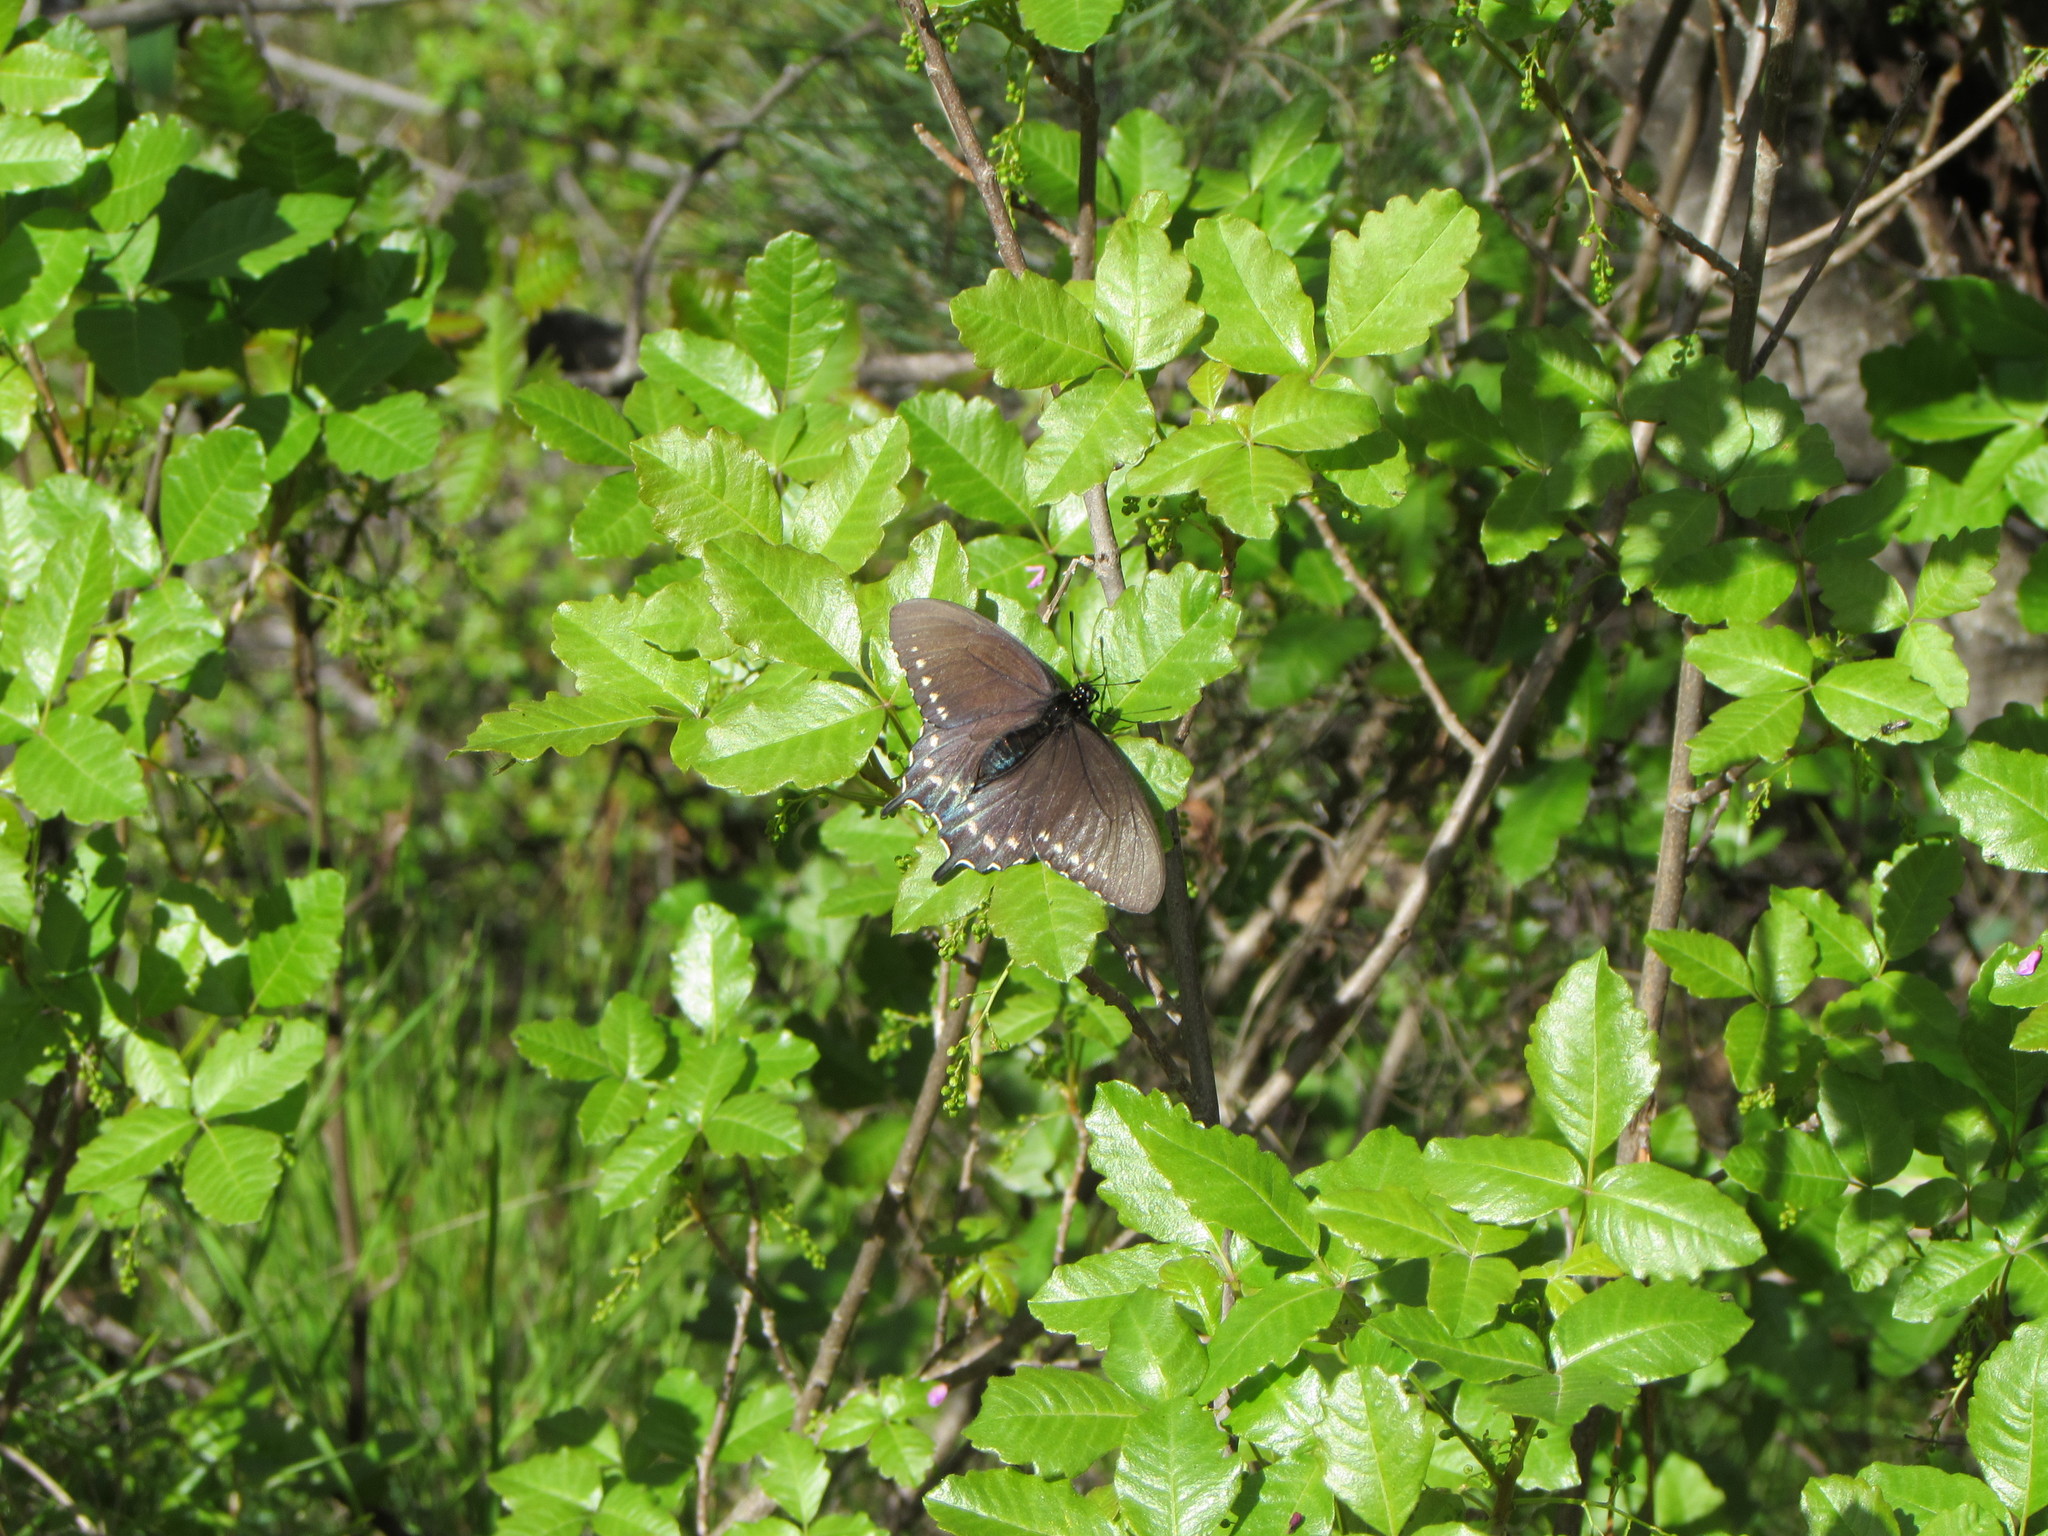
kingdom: Plantae
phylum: Tracheophyta
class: Magnoliopsida
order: Sapindales
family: Anacardiaceae
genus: Toxicodendron
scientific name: Toxicodendron diversilobum
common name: Pacific poison-oak
